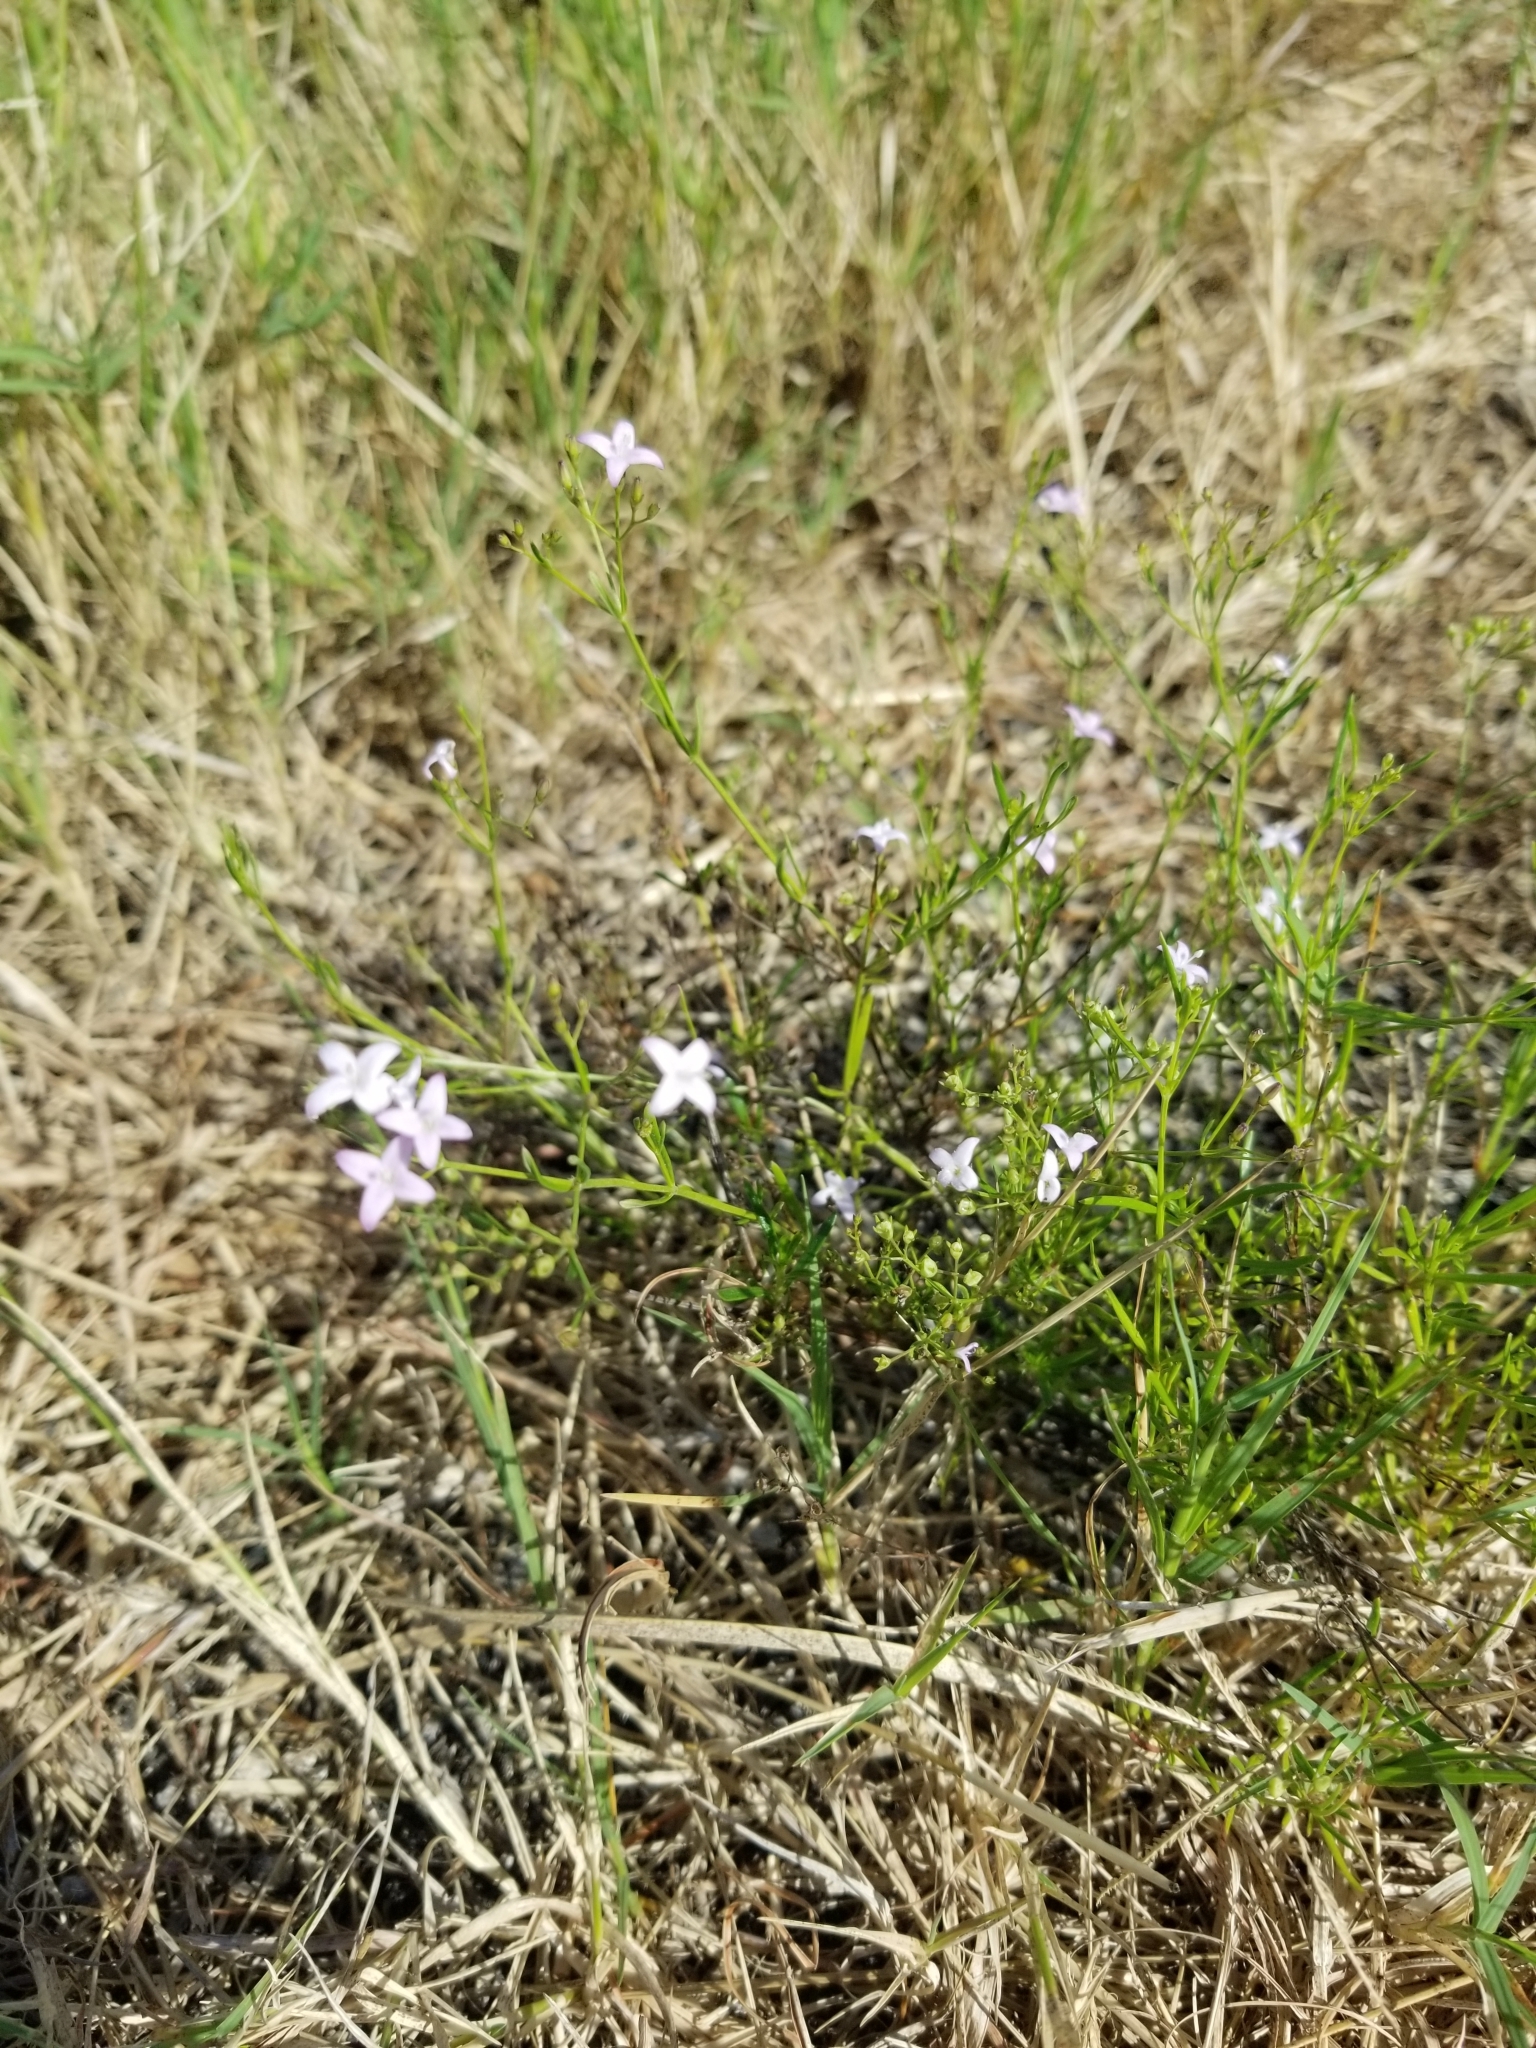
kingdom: Plantae
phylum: Tracheophyta
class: Magnoliopsida
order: Gentianales
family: Rubiaceae
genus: Stenaria
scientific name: Stenaria nigricans
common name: Diamondflowers
